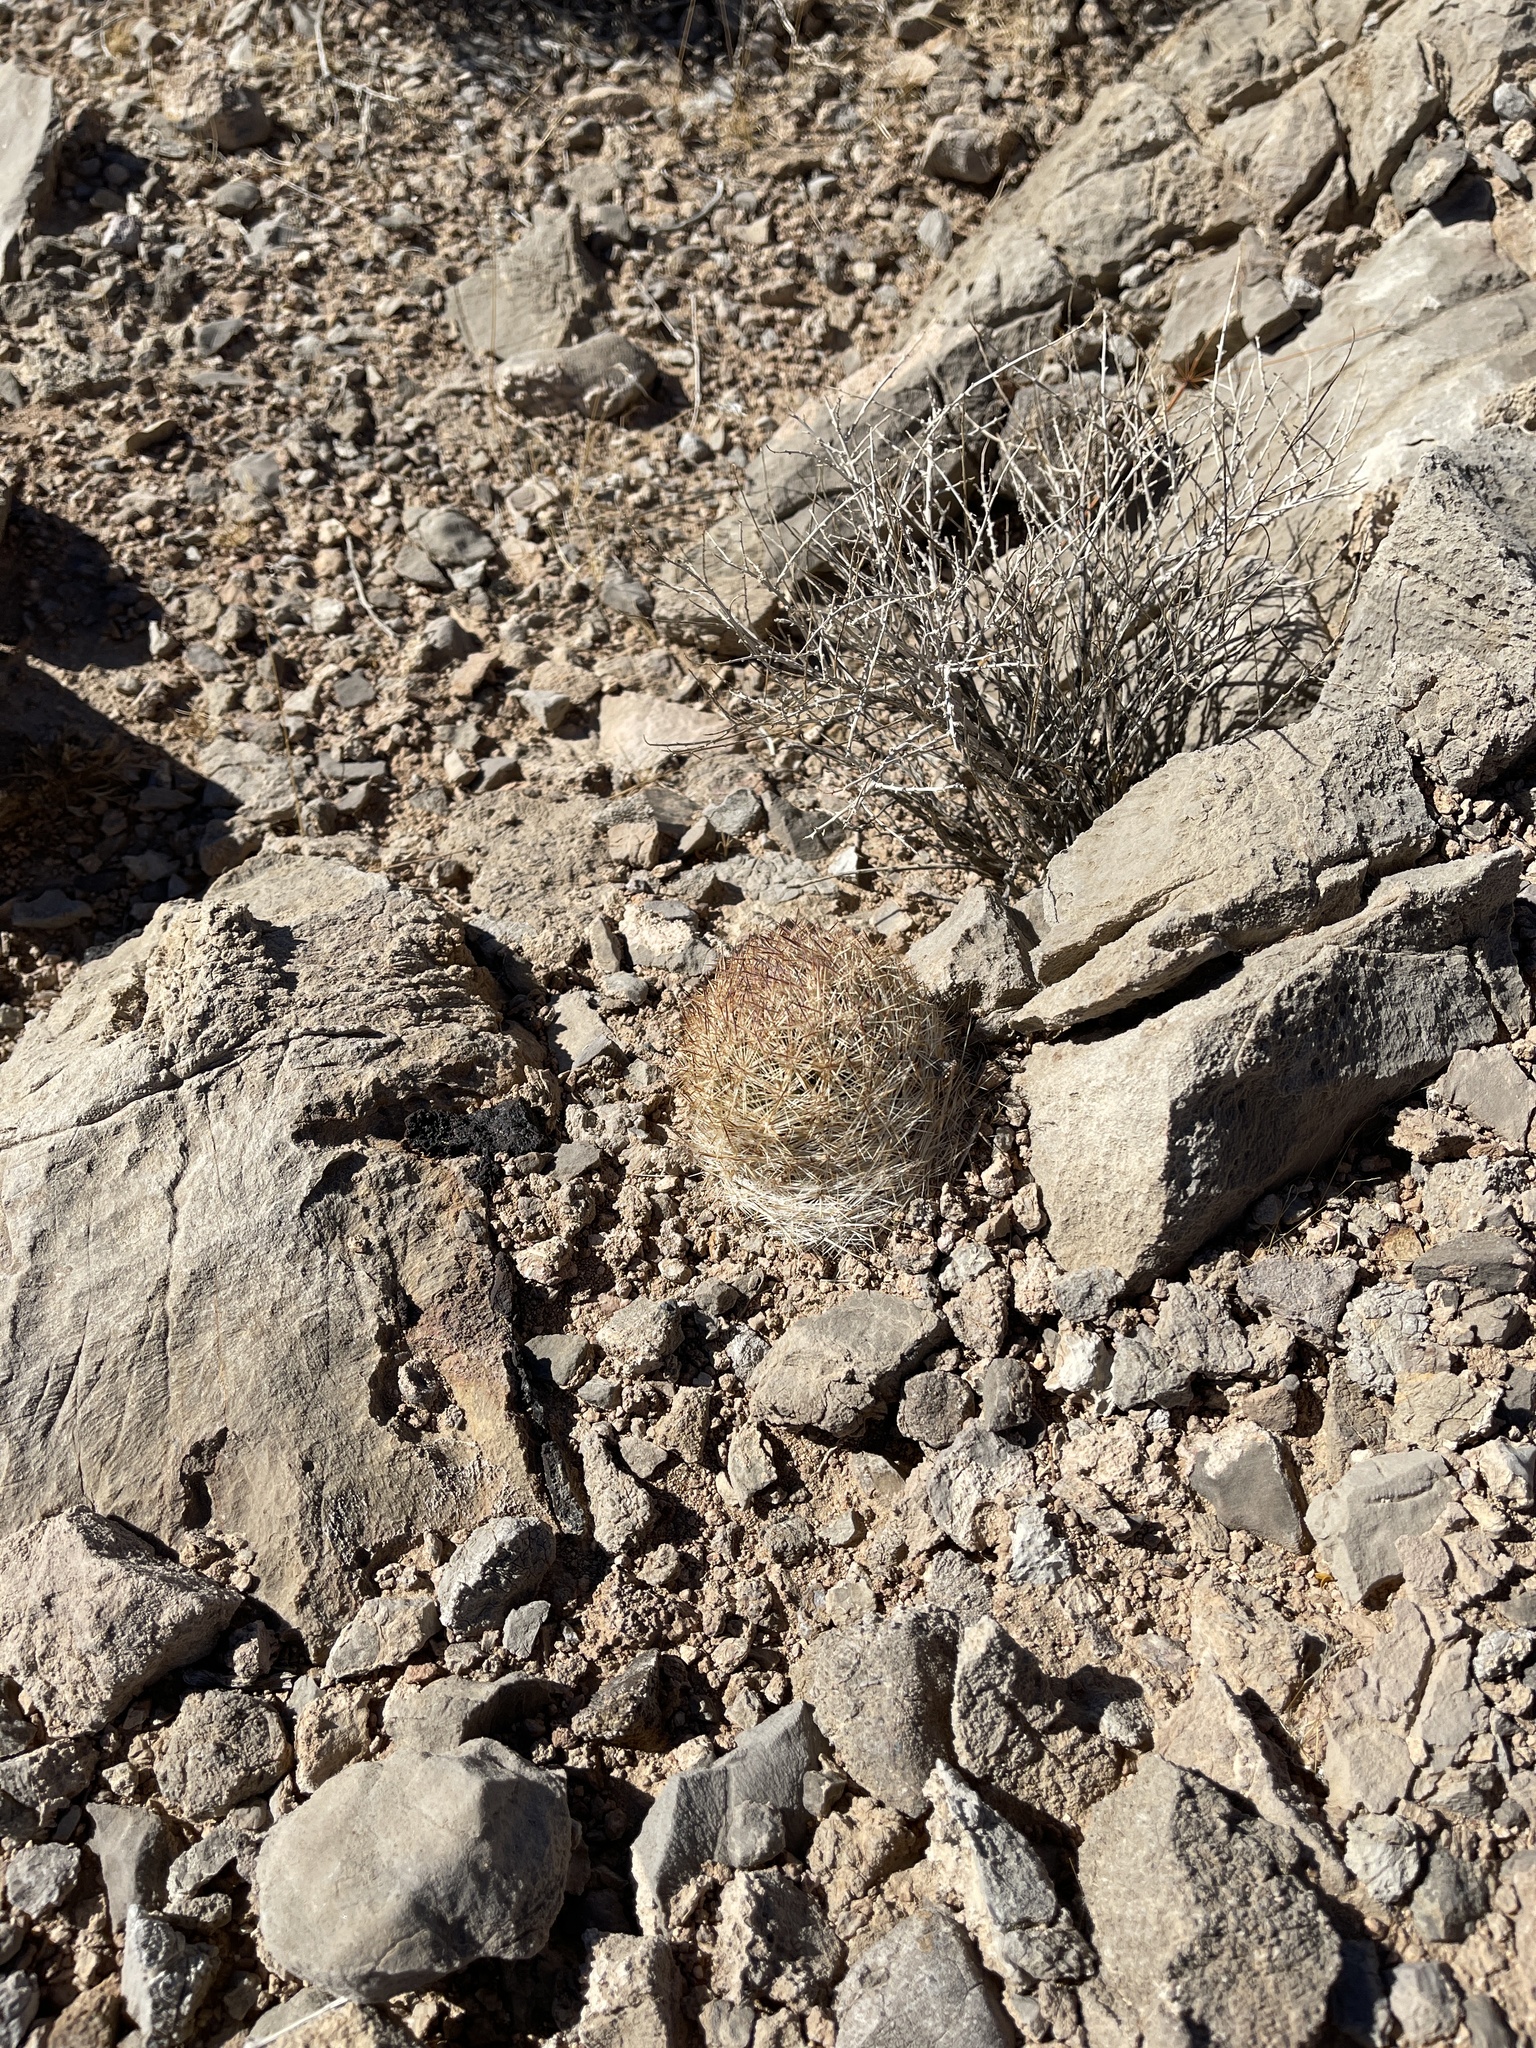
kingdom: Plantae
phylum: Tracheophyta
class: Magnoliopsida
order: Caryophyllales
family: Cactaceae
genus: Pelecyphora
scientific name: Pelecyphora dasyacantha
